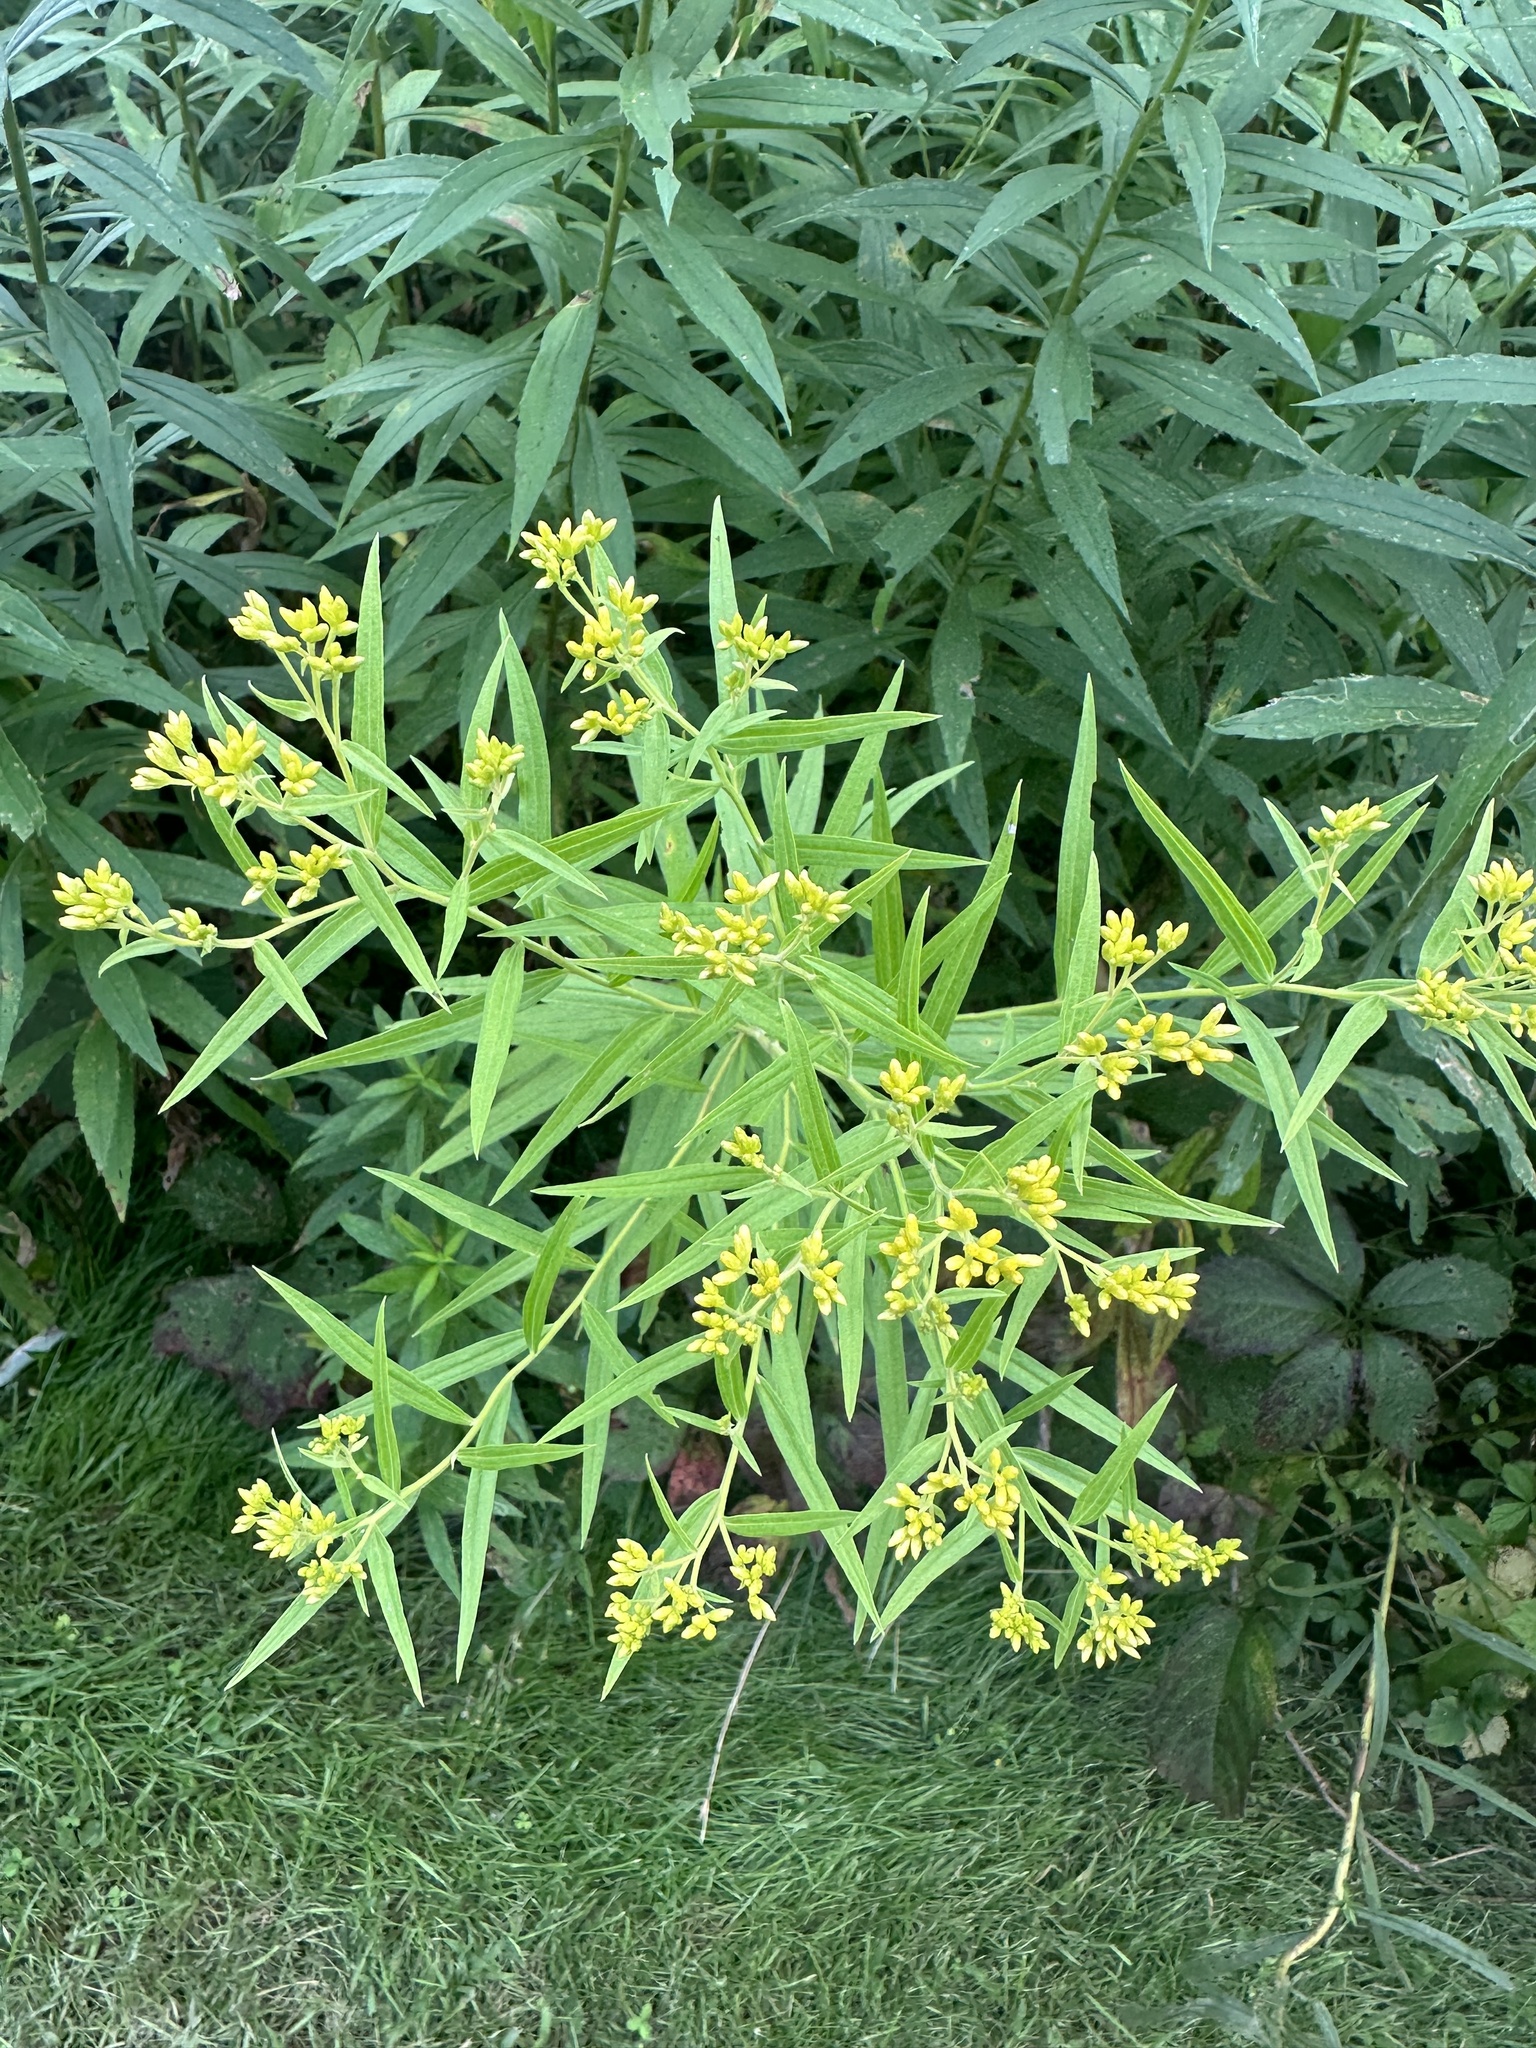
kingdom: Plantae
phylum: Tracheophyta
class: Magnoliopsida
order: Asterales
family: Asteraceae
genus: Euthamia
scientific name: Euthamia graminifolia
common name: Common goldentop
